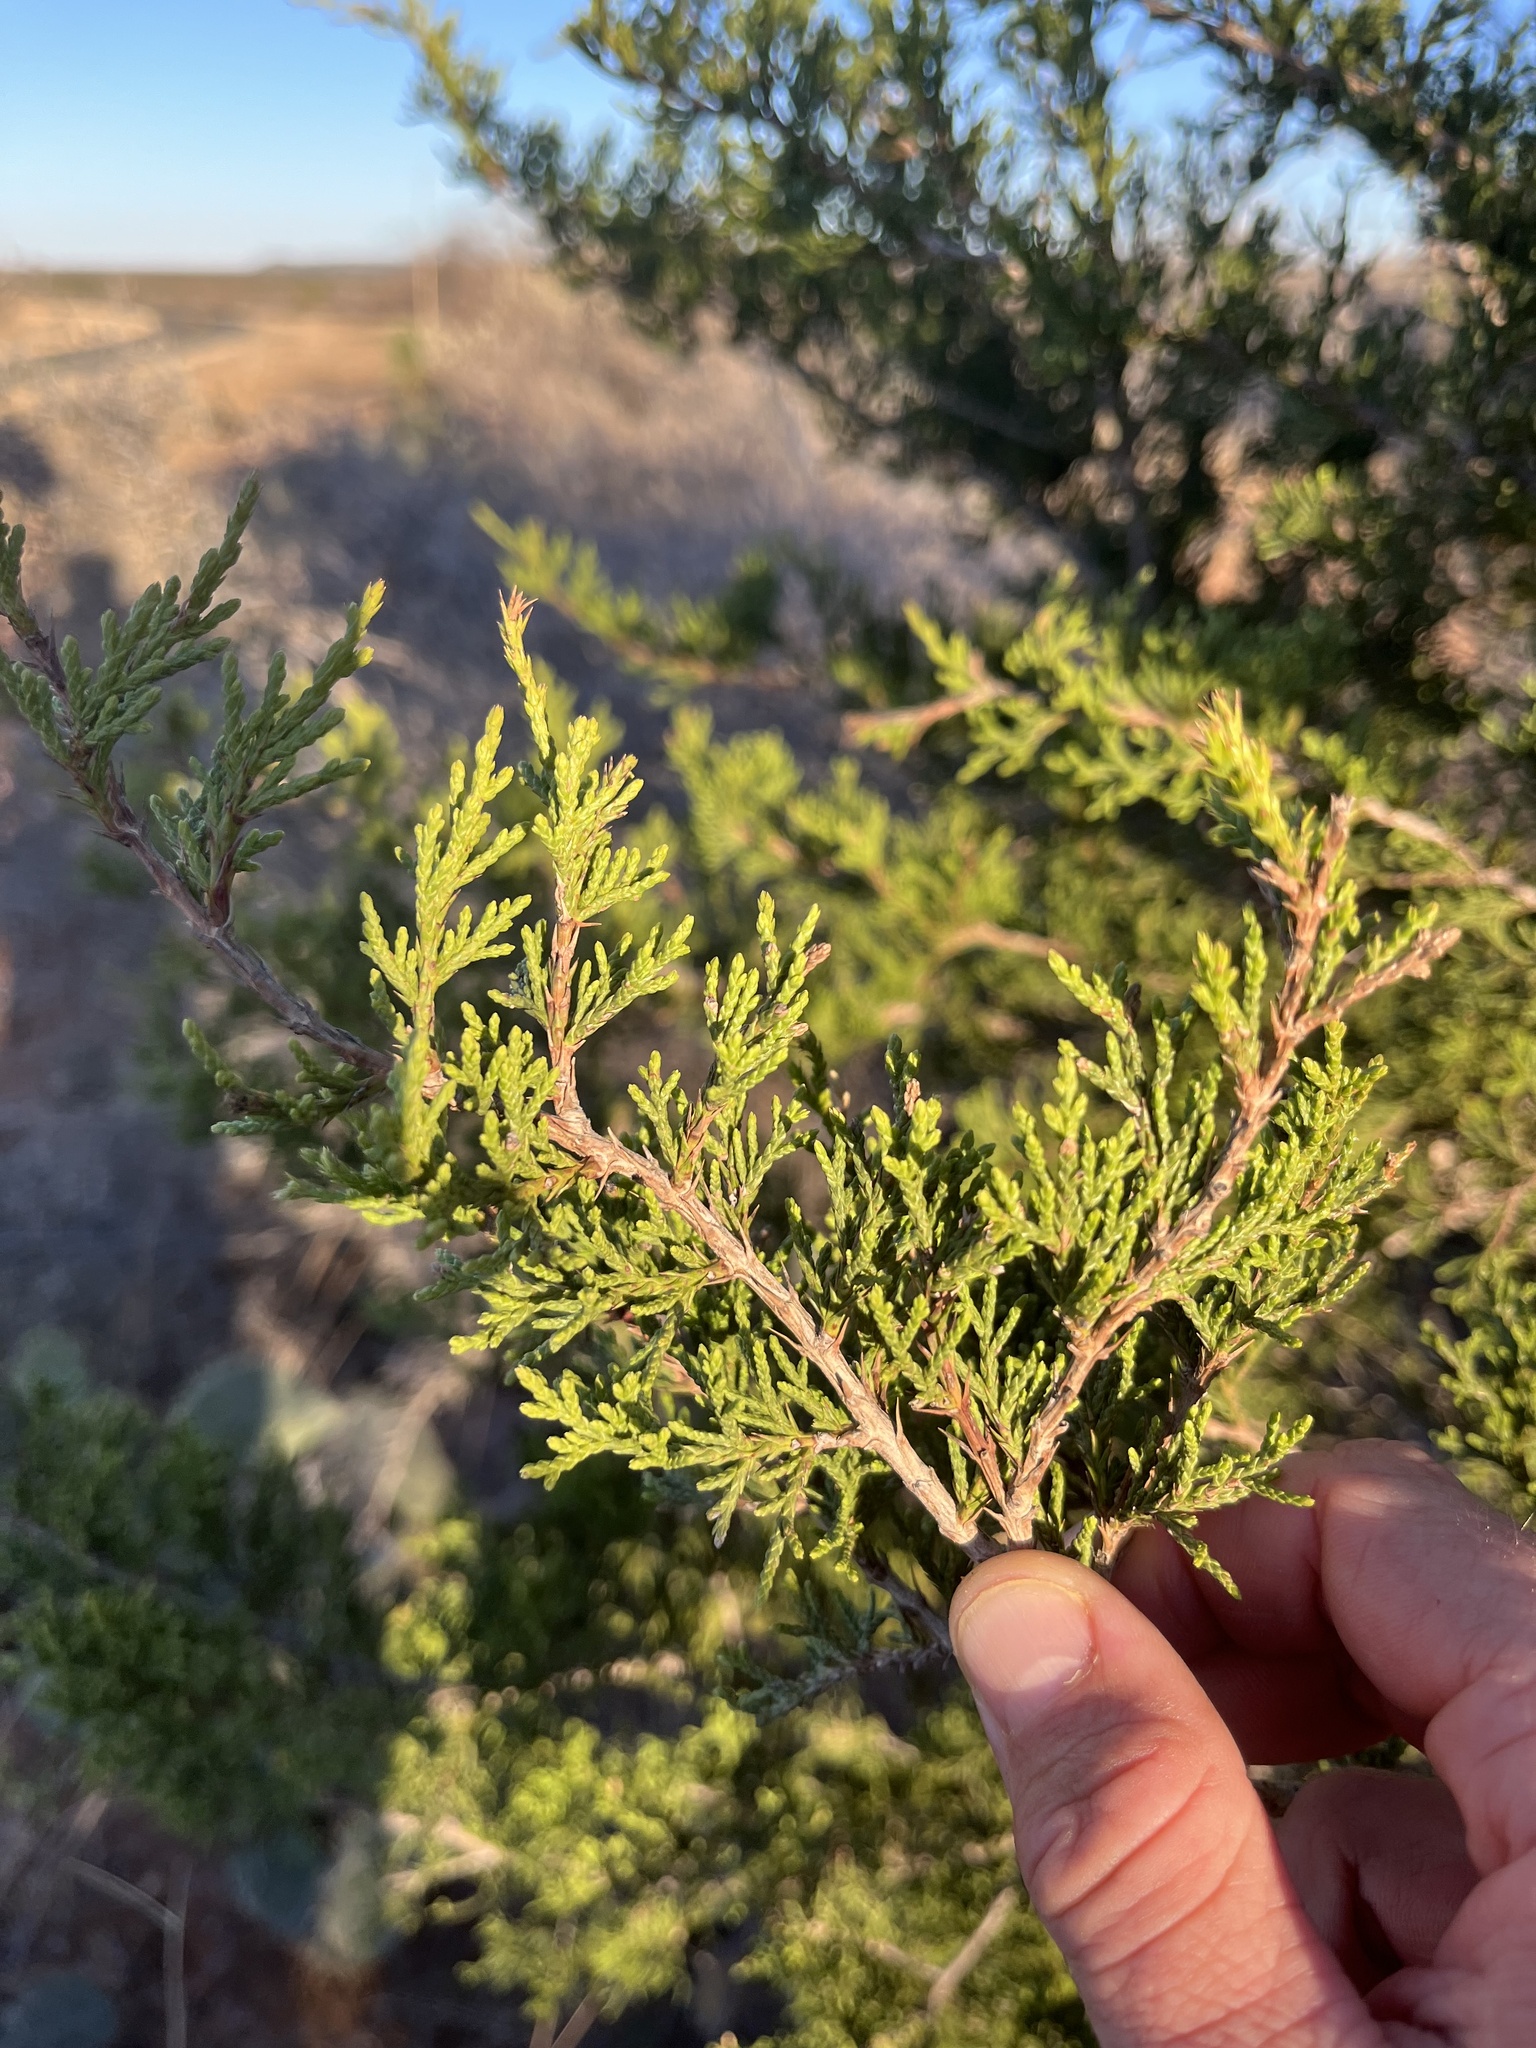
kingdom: Plantae
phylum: Tracheophyta
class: Pinopsida
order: Pinales
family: Cupressaceae
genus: Juniperus
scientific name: Juniperus ashei
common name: Mexican juniper
